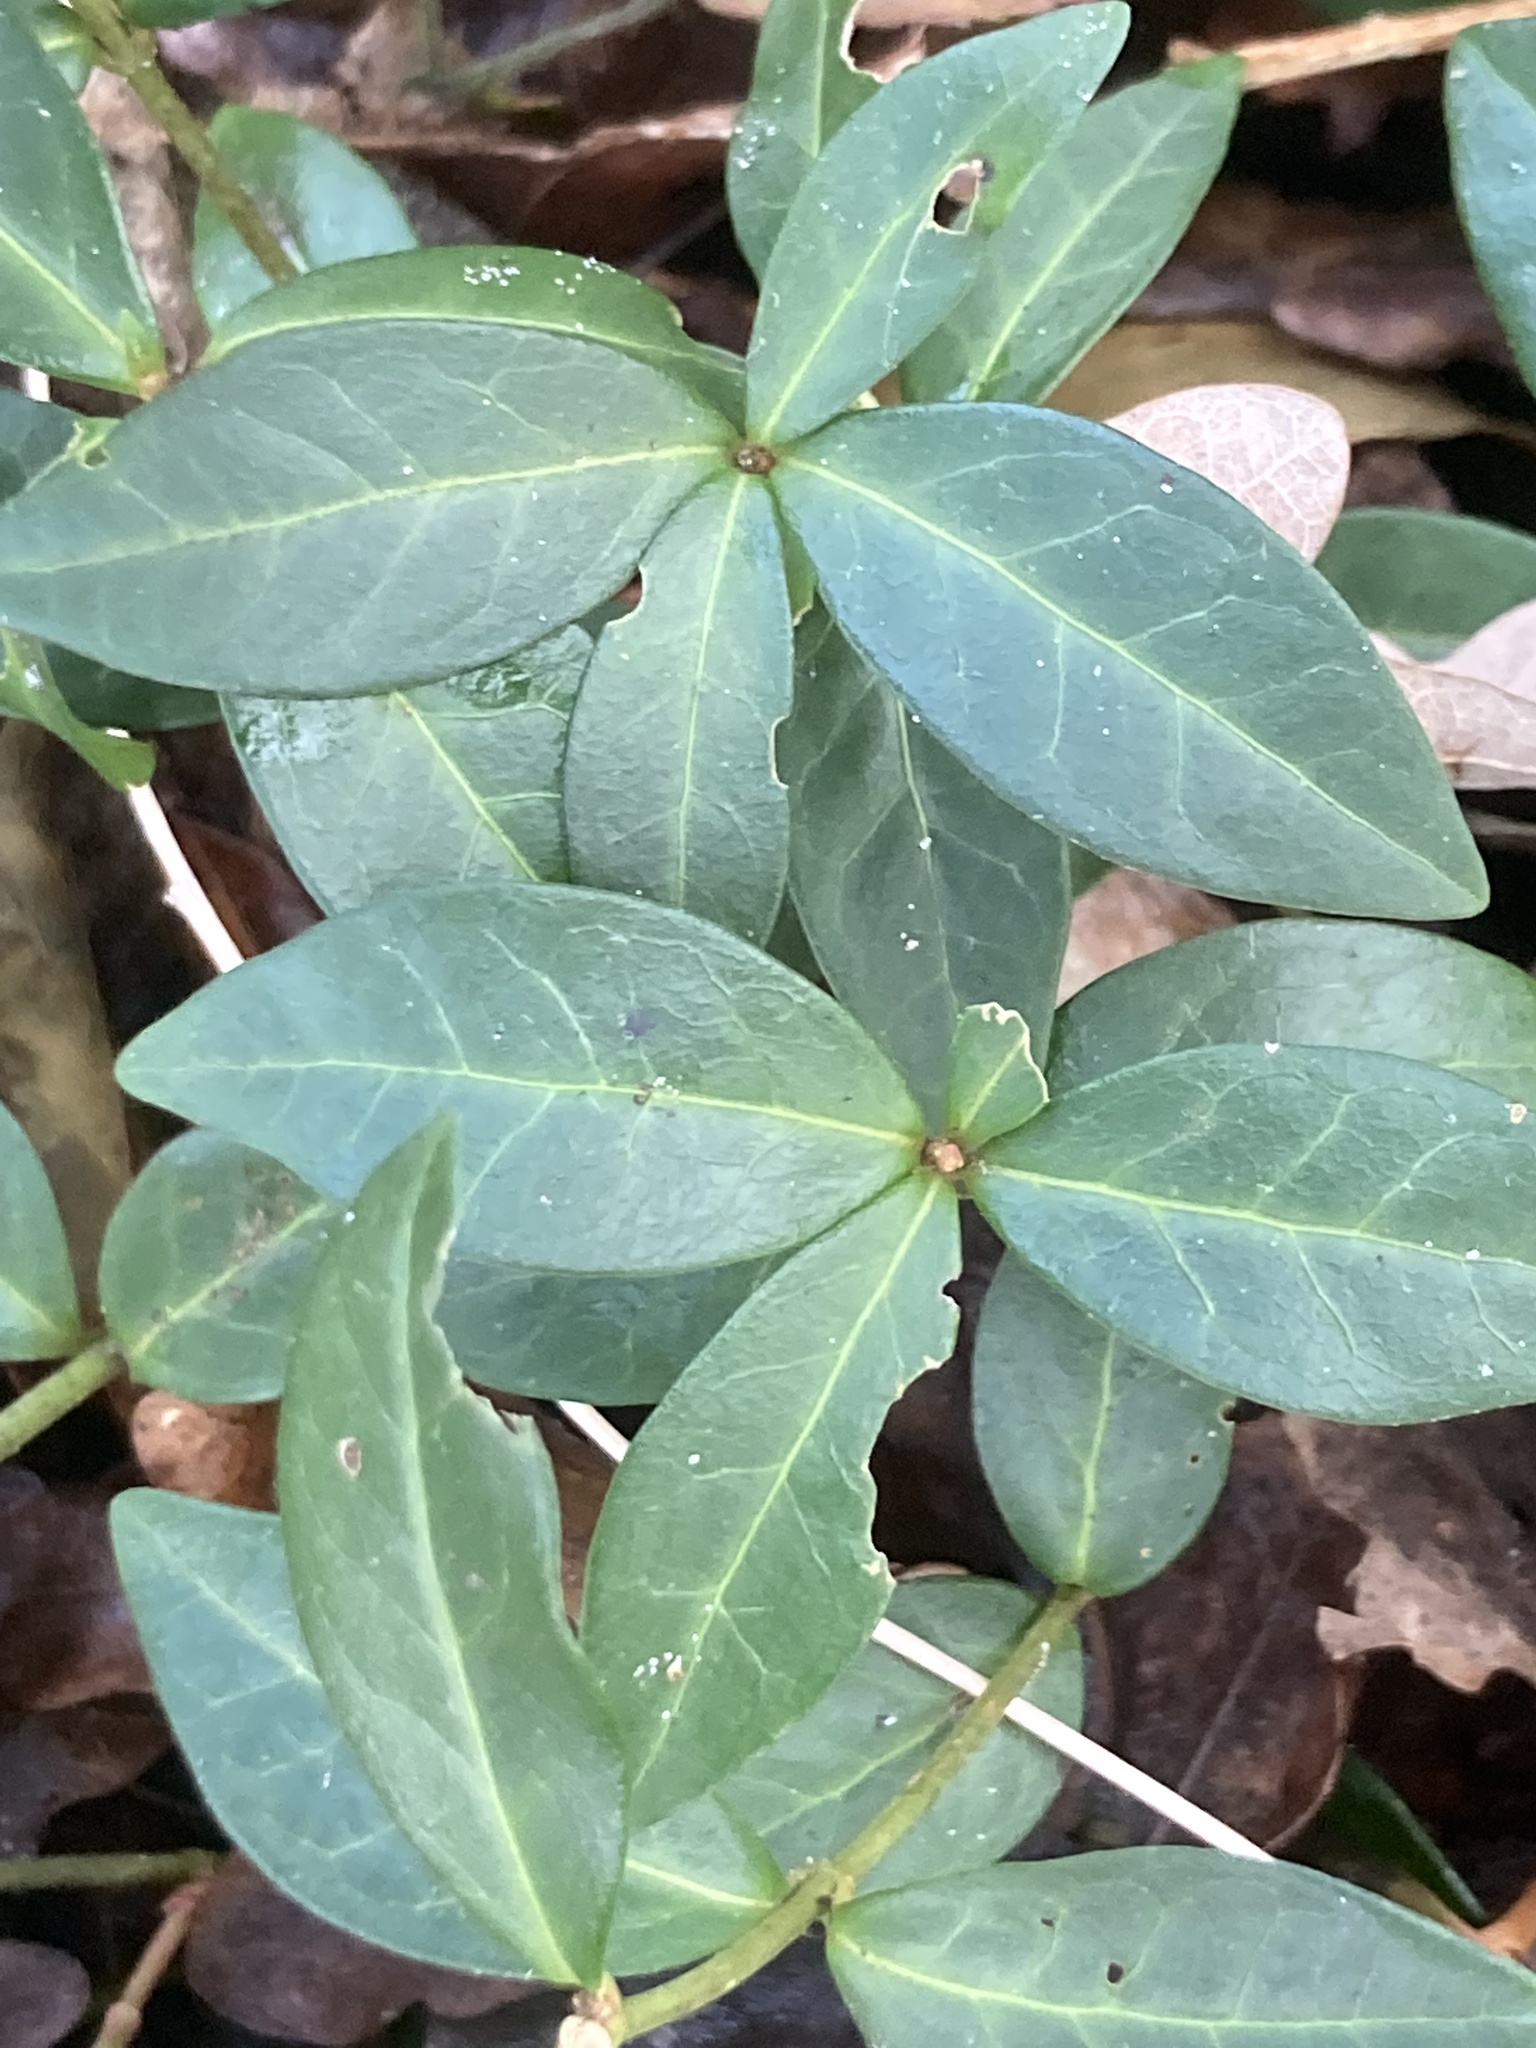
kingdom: Plantae
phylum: Tracheophyta
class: Magnoliopsida
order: Gentianales
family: Apocynaceae
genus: Vinca
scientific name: Vinca minor
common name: Lesser periwinkle
